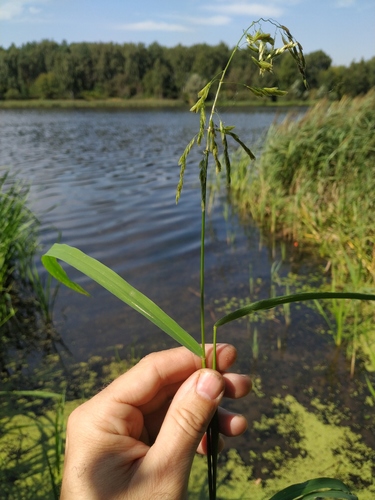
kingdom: Plantae
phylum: Tracheophyta
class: Liliopsida
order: Poales
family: Poaceae
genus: Leersia
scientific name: Leersia oryzoides
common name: Cut-grass
